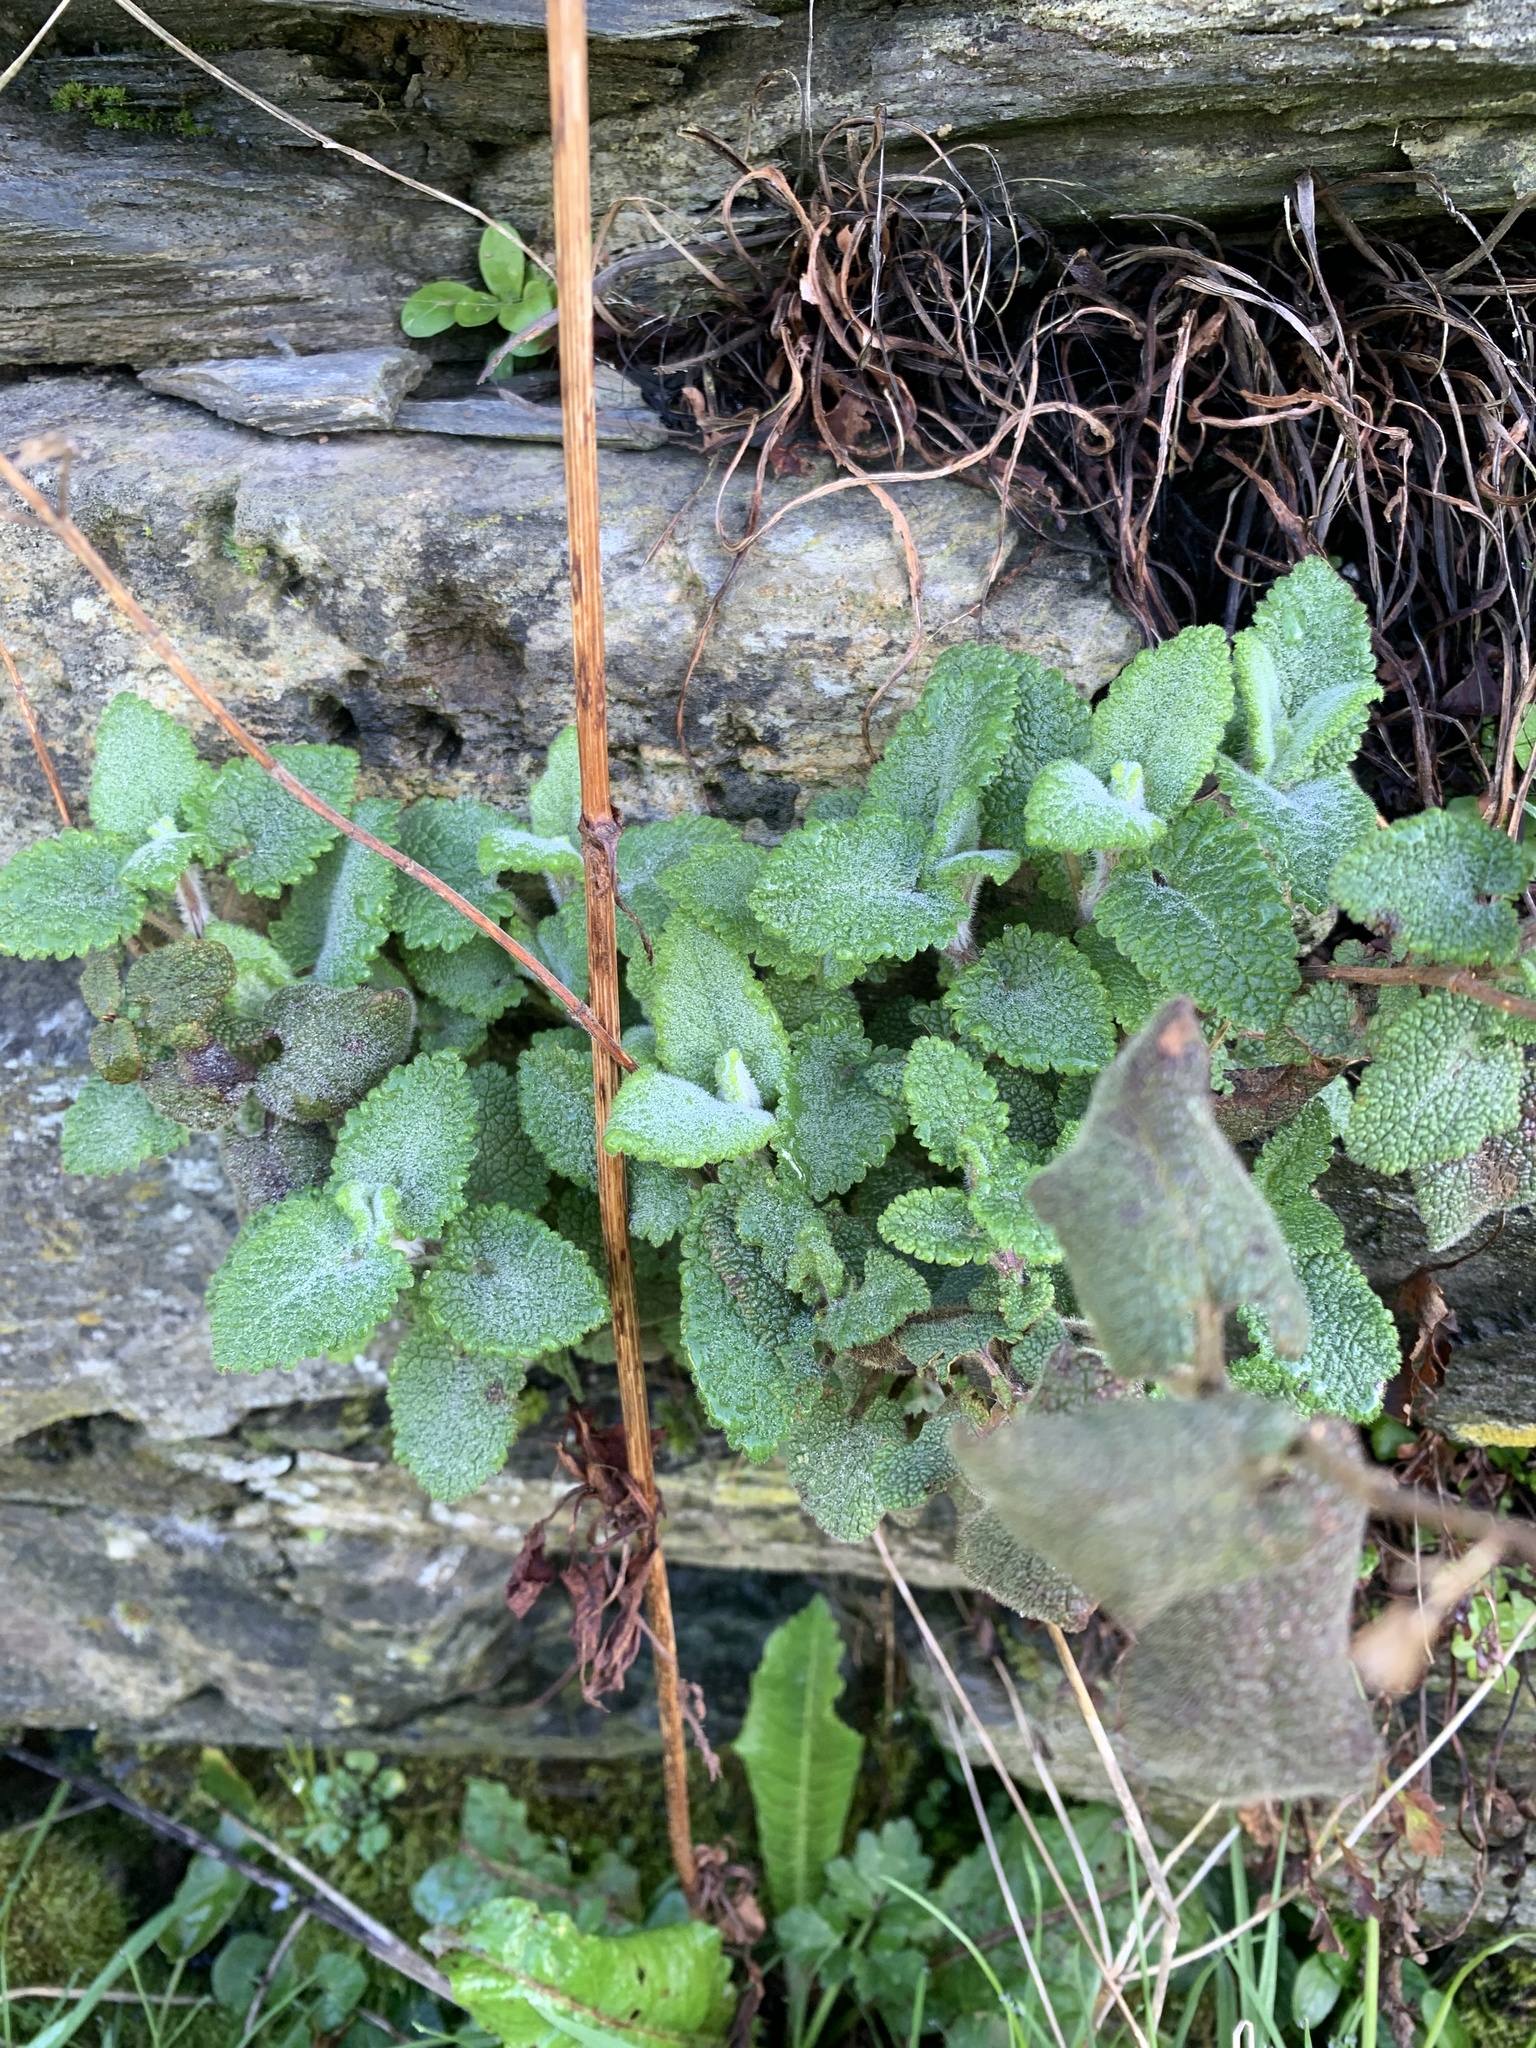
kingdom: Plantae
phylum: Tracheophyta
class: Magnoliopsida
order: Lamiales
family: Lamiaceae
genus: Teucrium
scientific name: Teucrium scorodonia
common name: Woodland germander
